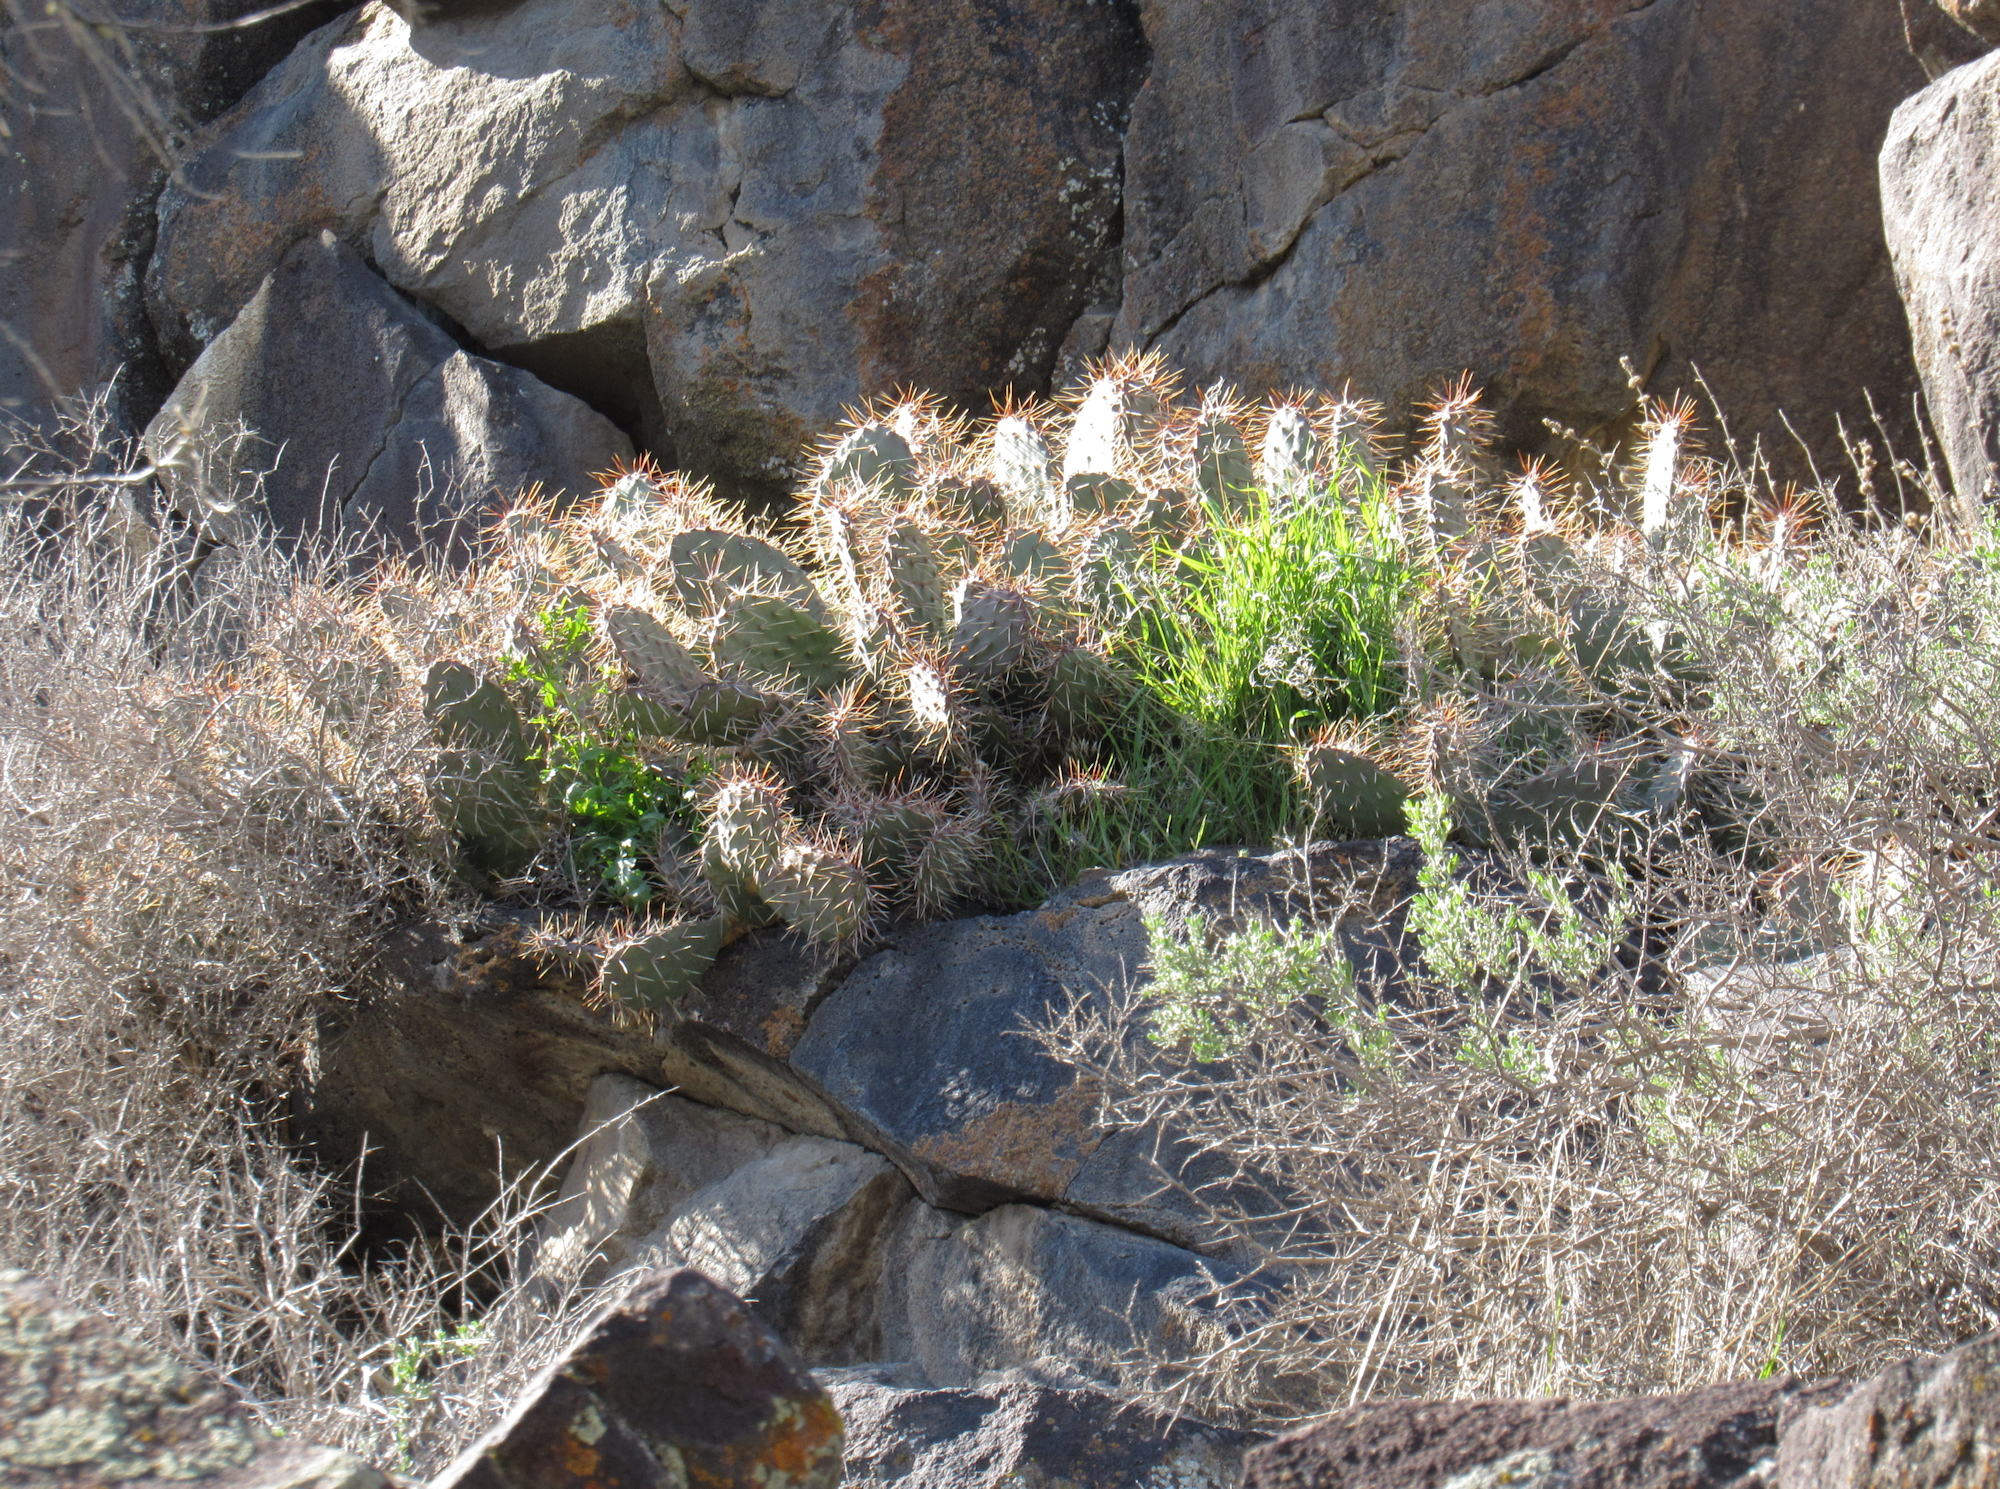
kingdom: Plantae
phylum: Tracheophyta
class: Magnoliopsida
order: Caryophyllales
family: Cactaceae
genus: Opuntia
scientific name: Opuntia polyacantha
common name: Plains prickly-pear
